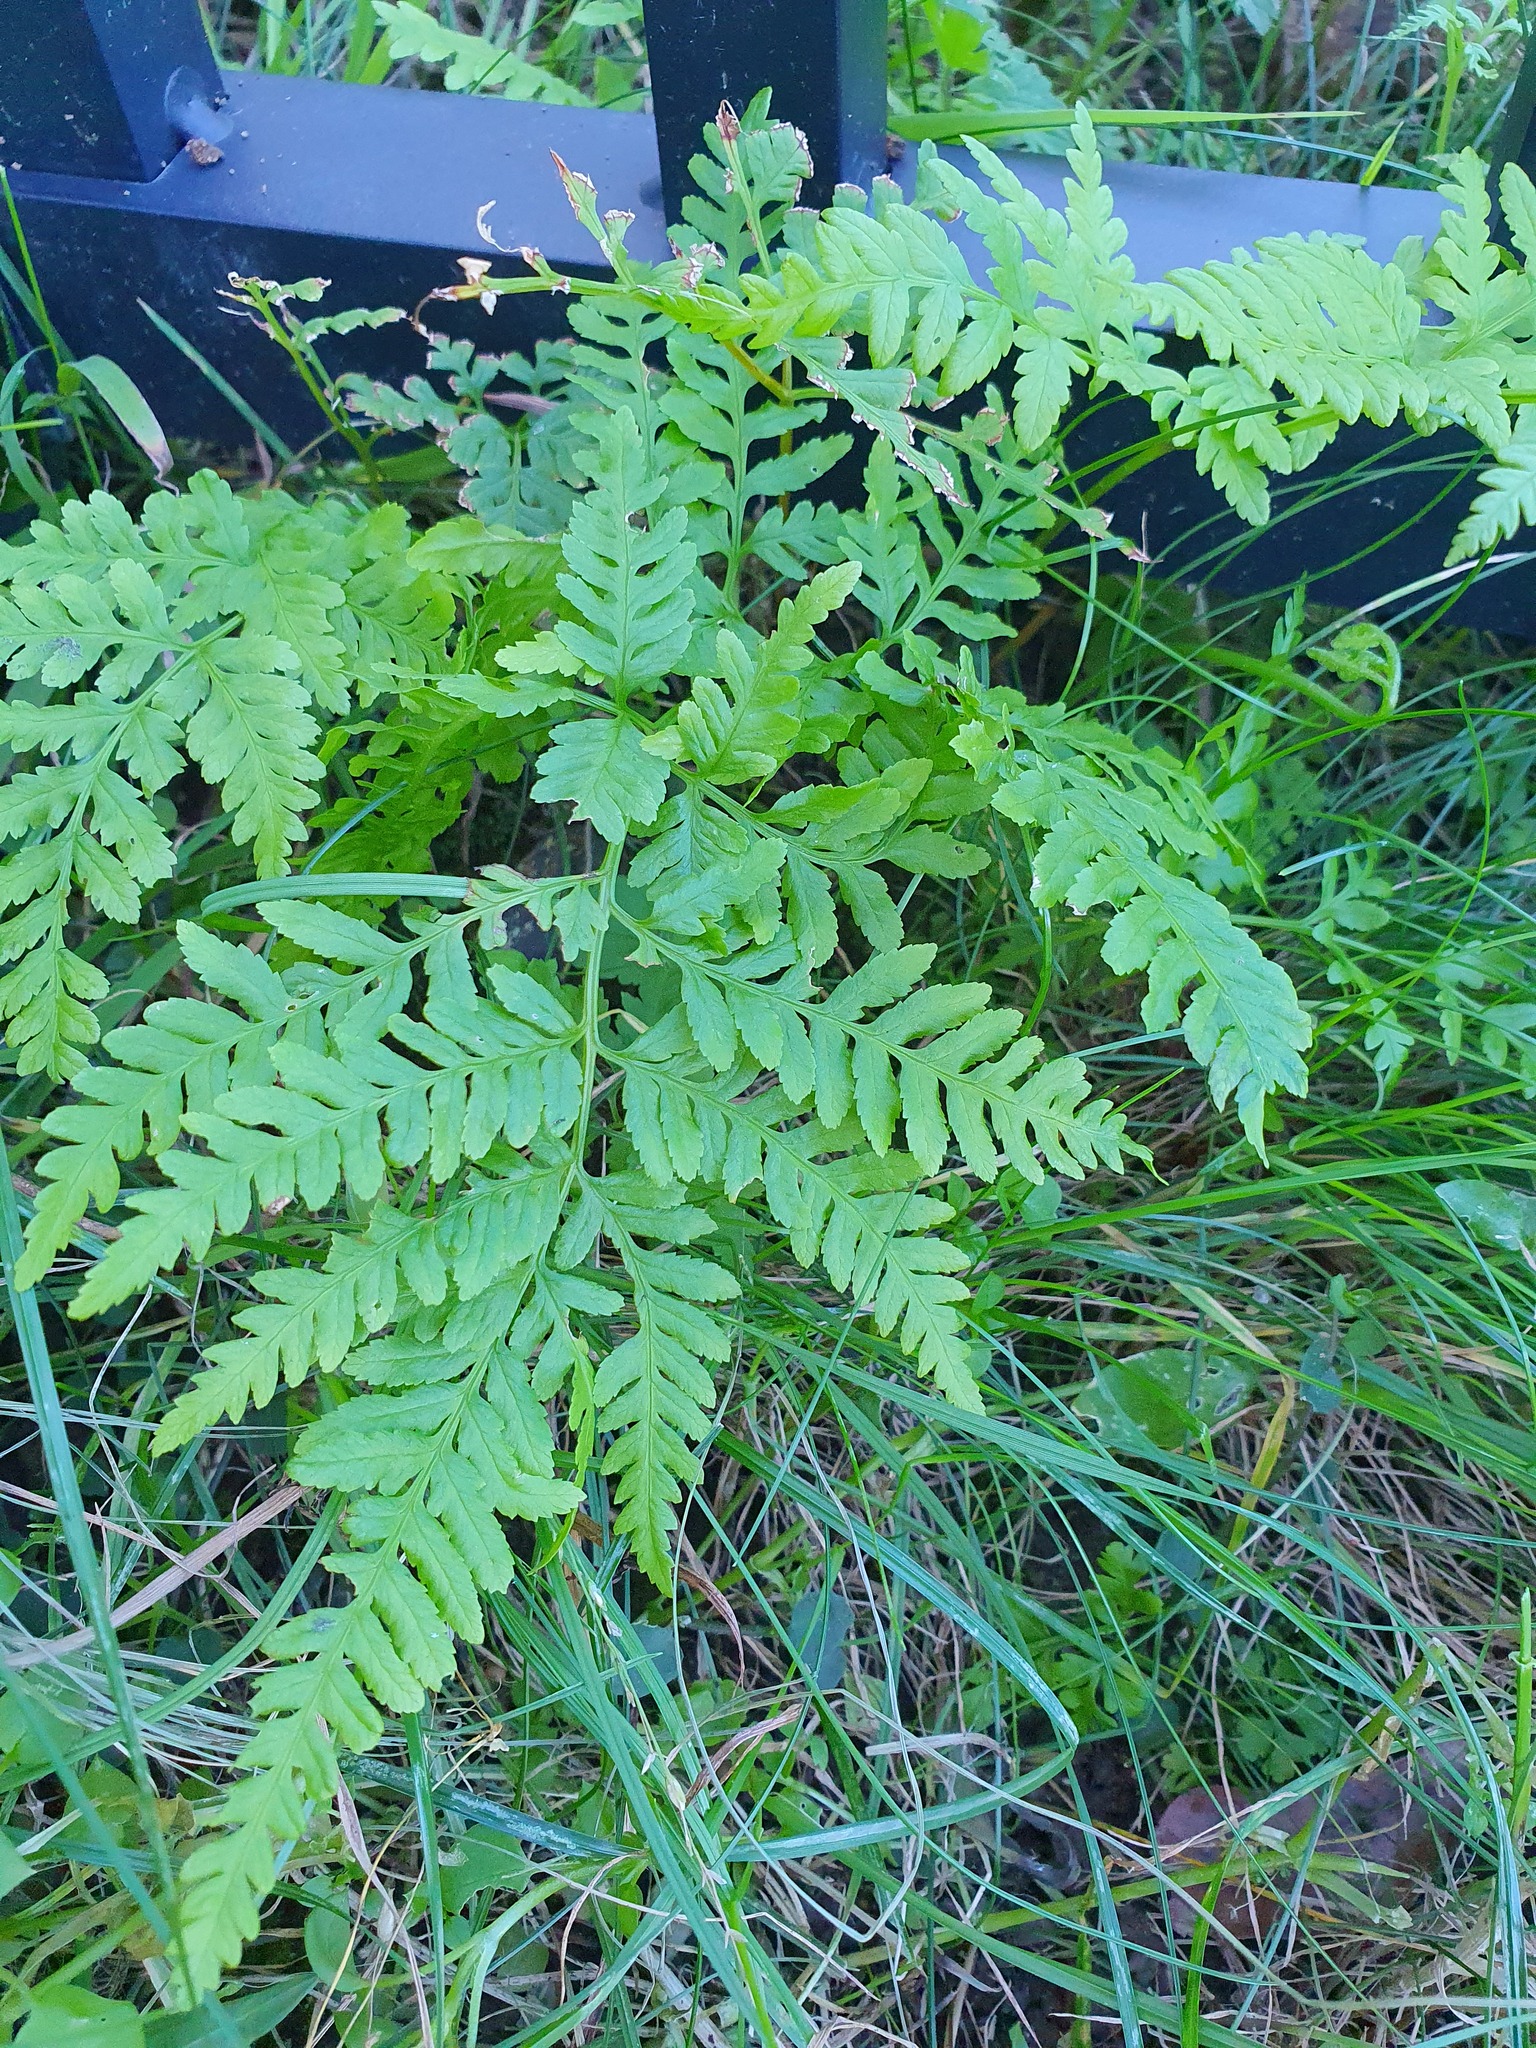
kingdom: Plantae
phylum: Tracheophyta
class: Polypodiopsida
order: Polypodiales
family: Pteridaceae
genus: Pteris
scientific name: Pteris tremula
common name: Australian brake
